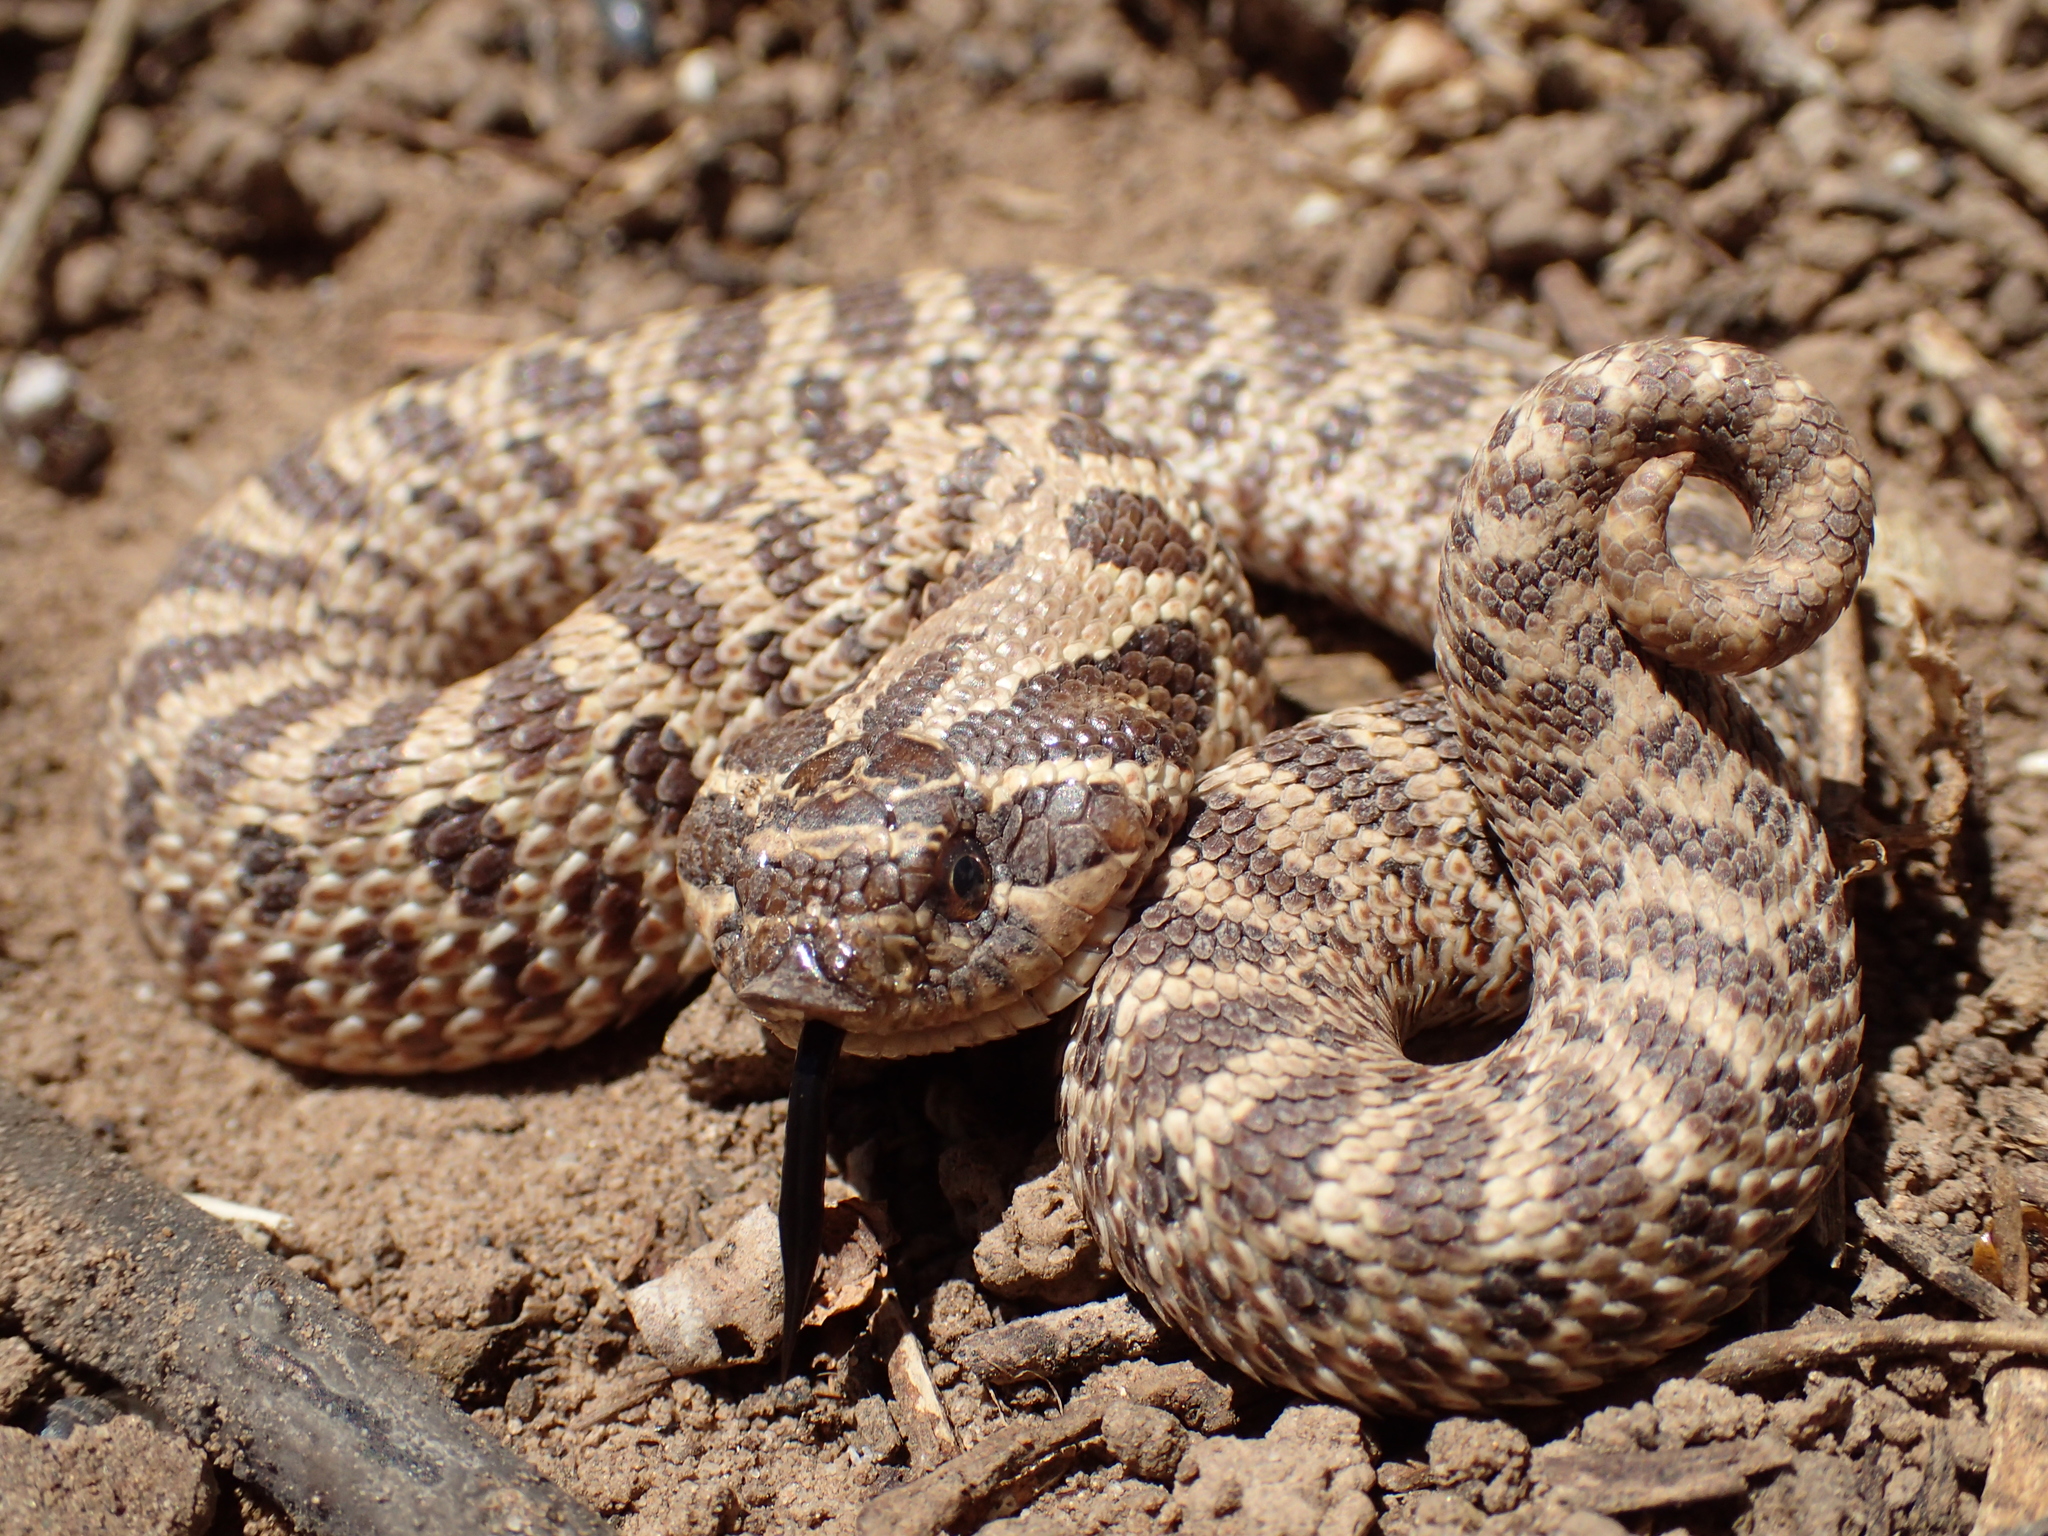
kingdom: Animalia
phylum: Chordata
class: Squamata
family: Colubridae
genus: Heterodon
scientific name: Heterodon nasicus
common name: Western hognose snake
